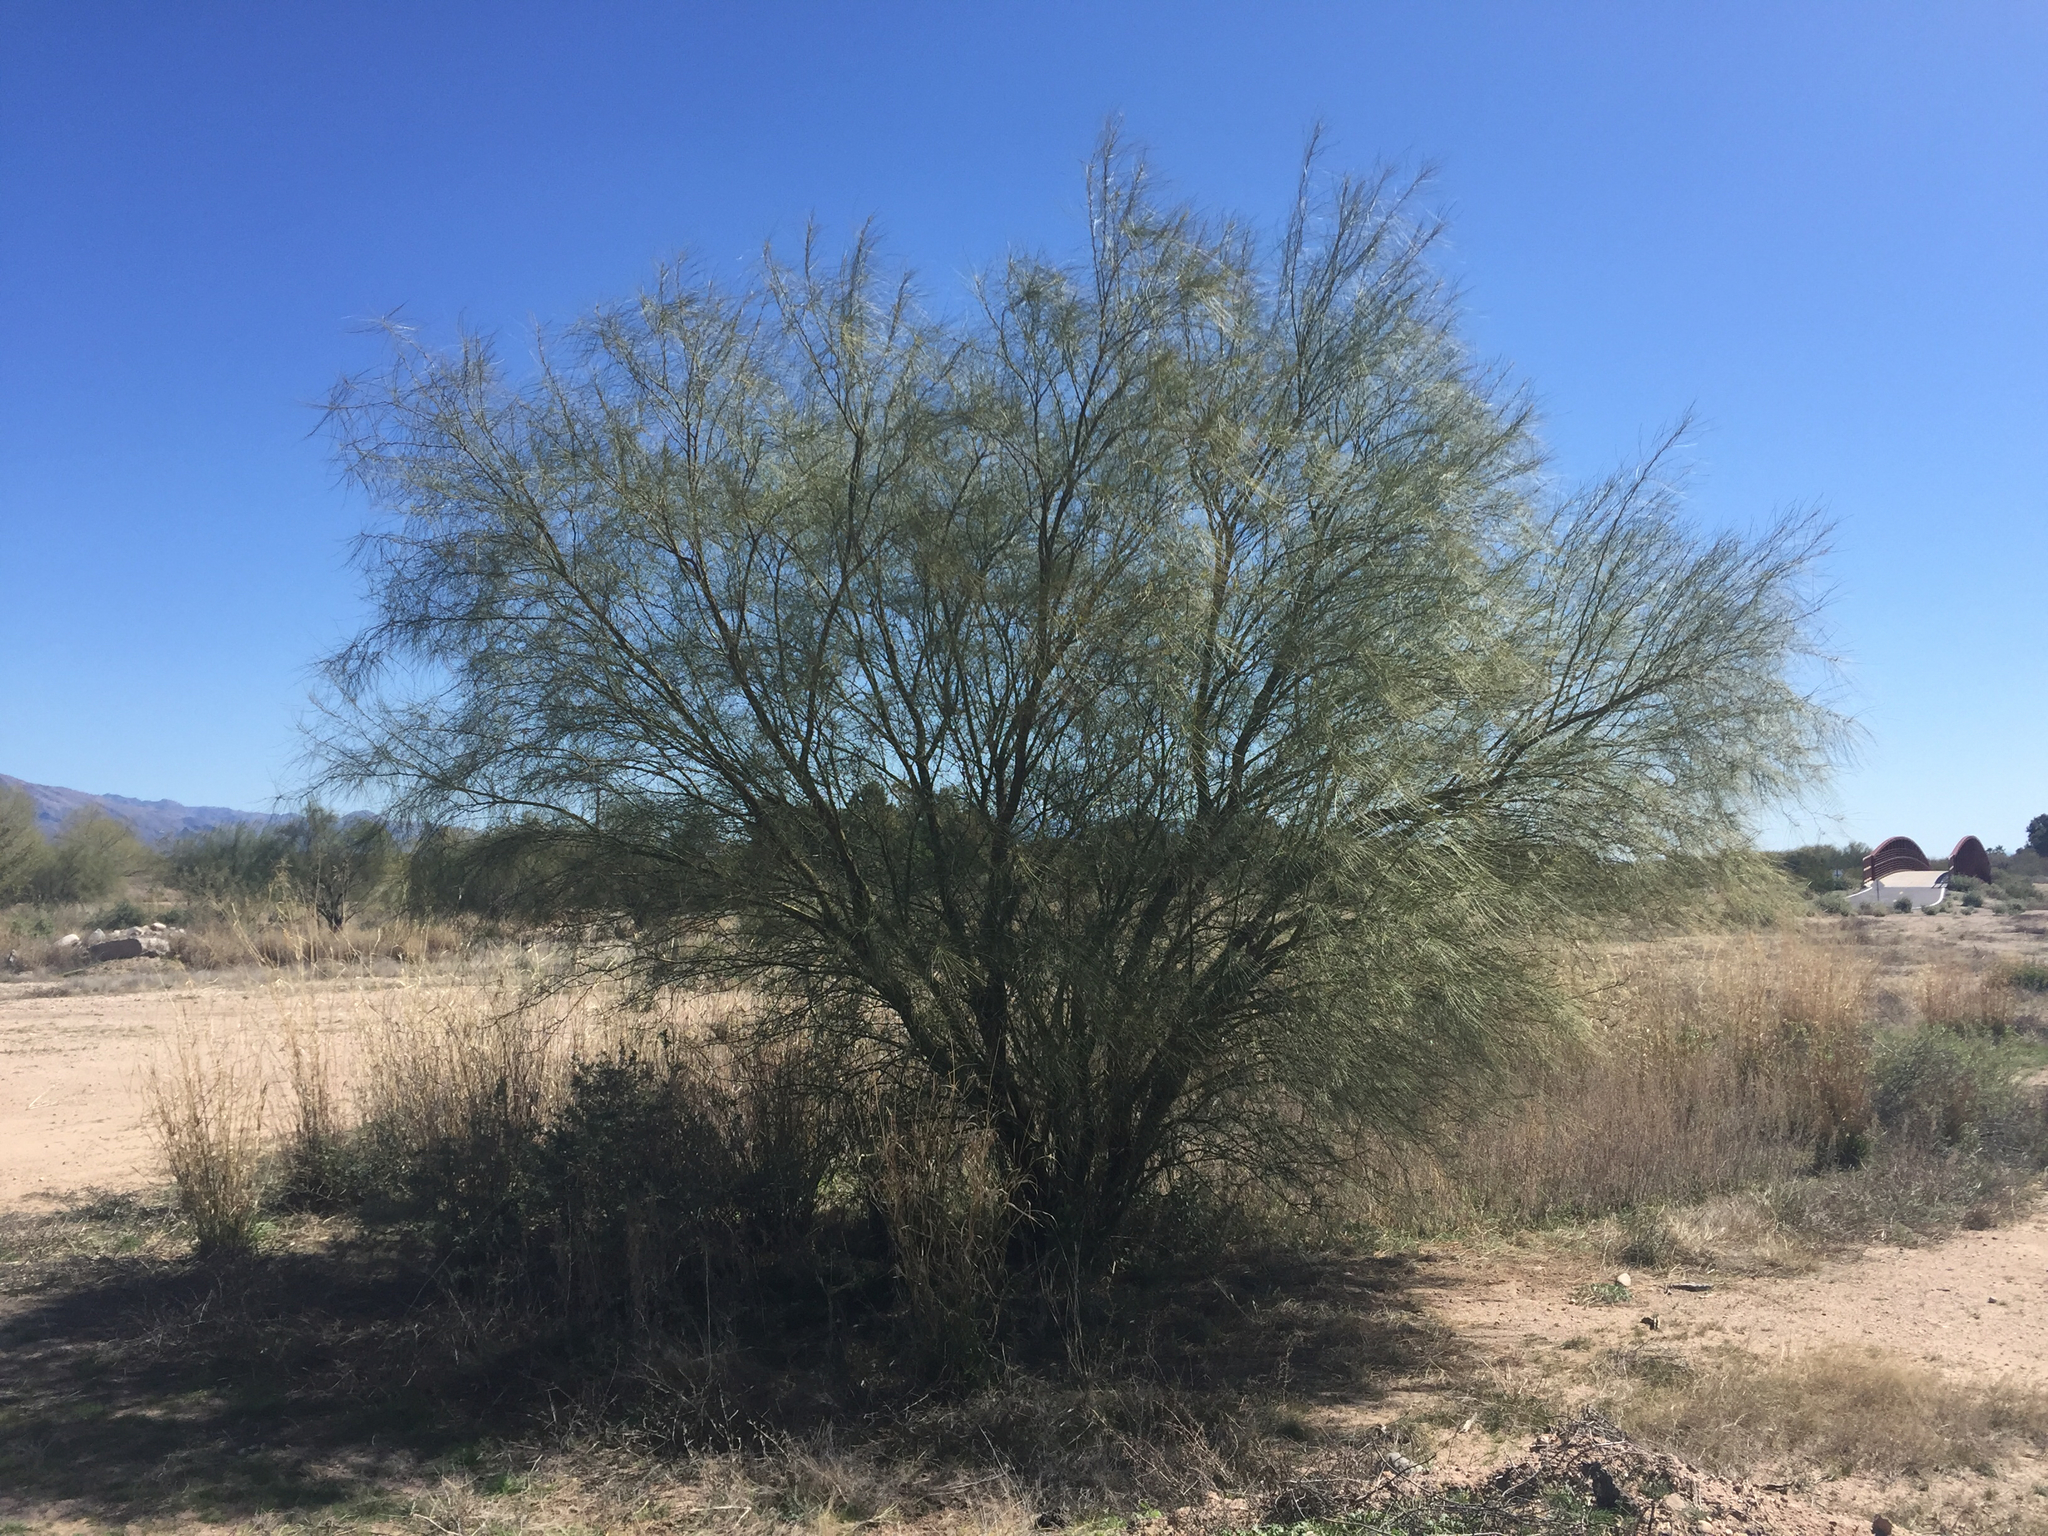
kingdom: Plantae
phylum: Tracheophyta
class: Magnoliopsida
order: Fabales
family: Fabaceae
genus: Parkinsonia
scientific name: Parkinsonia aculeata
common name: Jerusalem thorn
